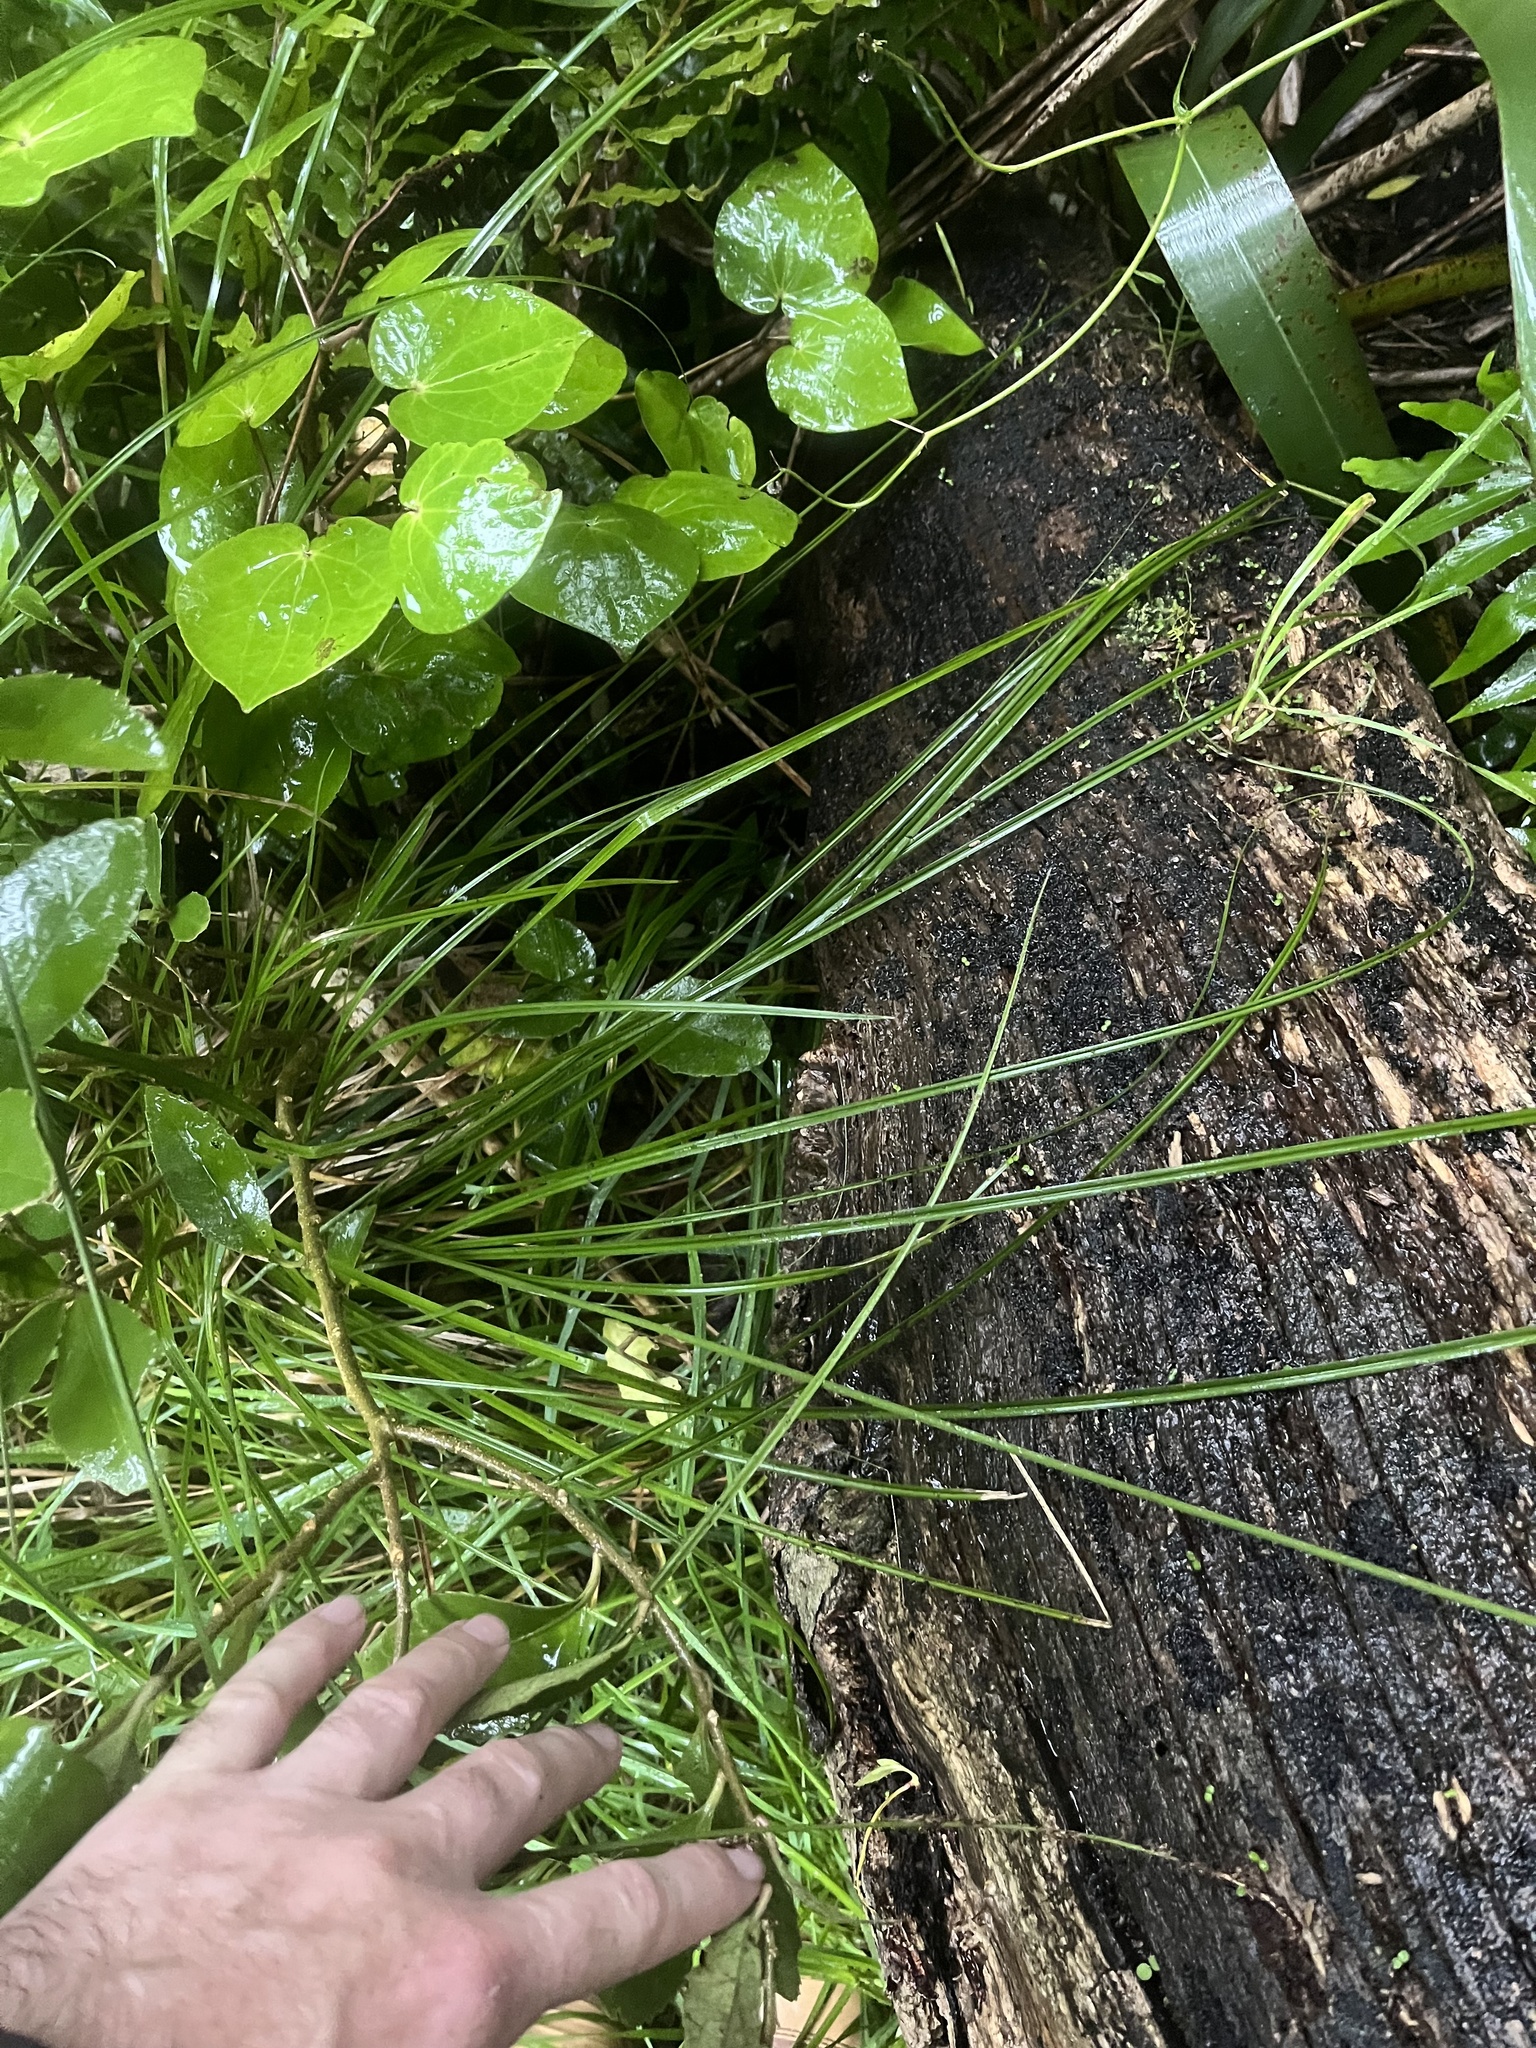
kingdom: Plantae
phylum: Tracheophyta
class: Liliopsida
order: Poales
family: Cyperaceae
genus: Carex
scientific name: Carex virgata
